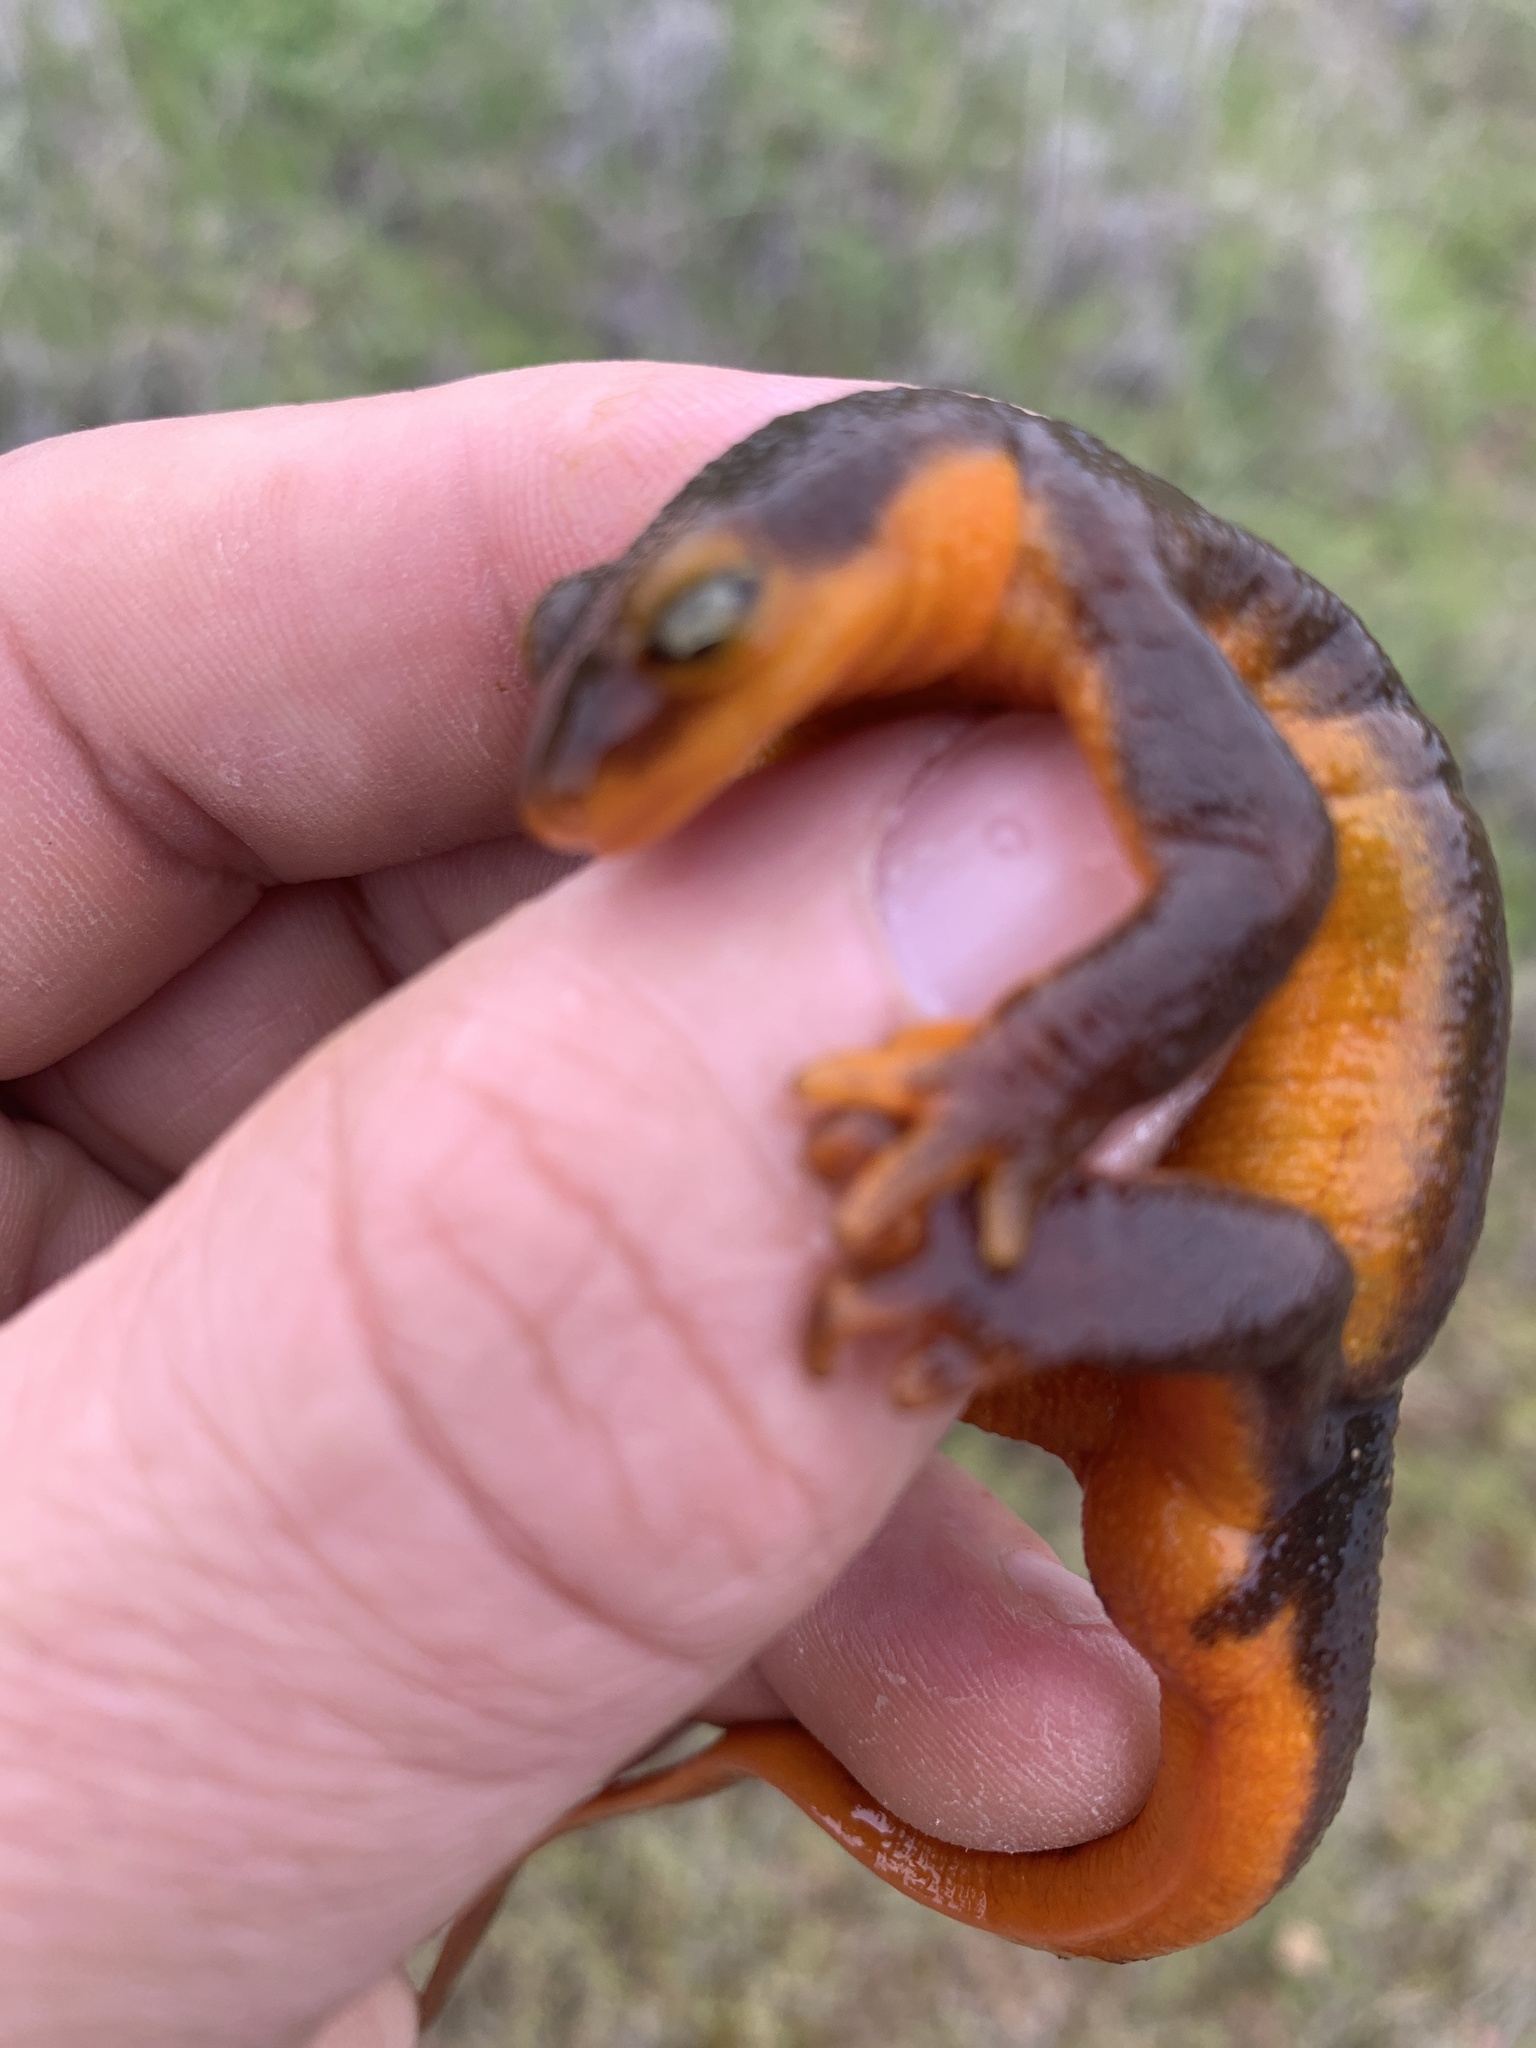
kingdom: Animalia
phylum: Chordata
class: Amphibia
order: Caudata
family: Salamandridae
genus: Taricha
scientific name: Taricha torosa
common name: California newt
